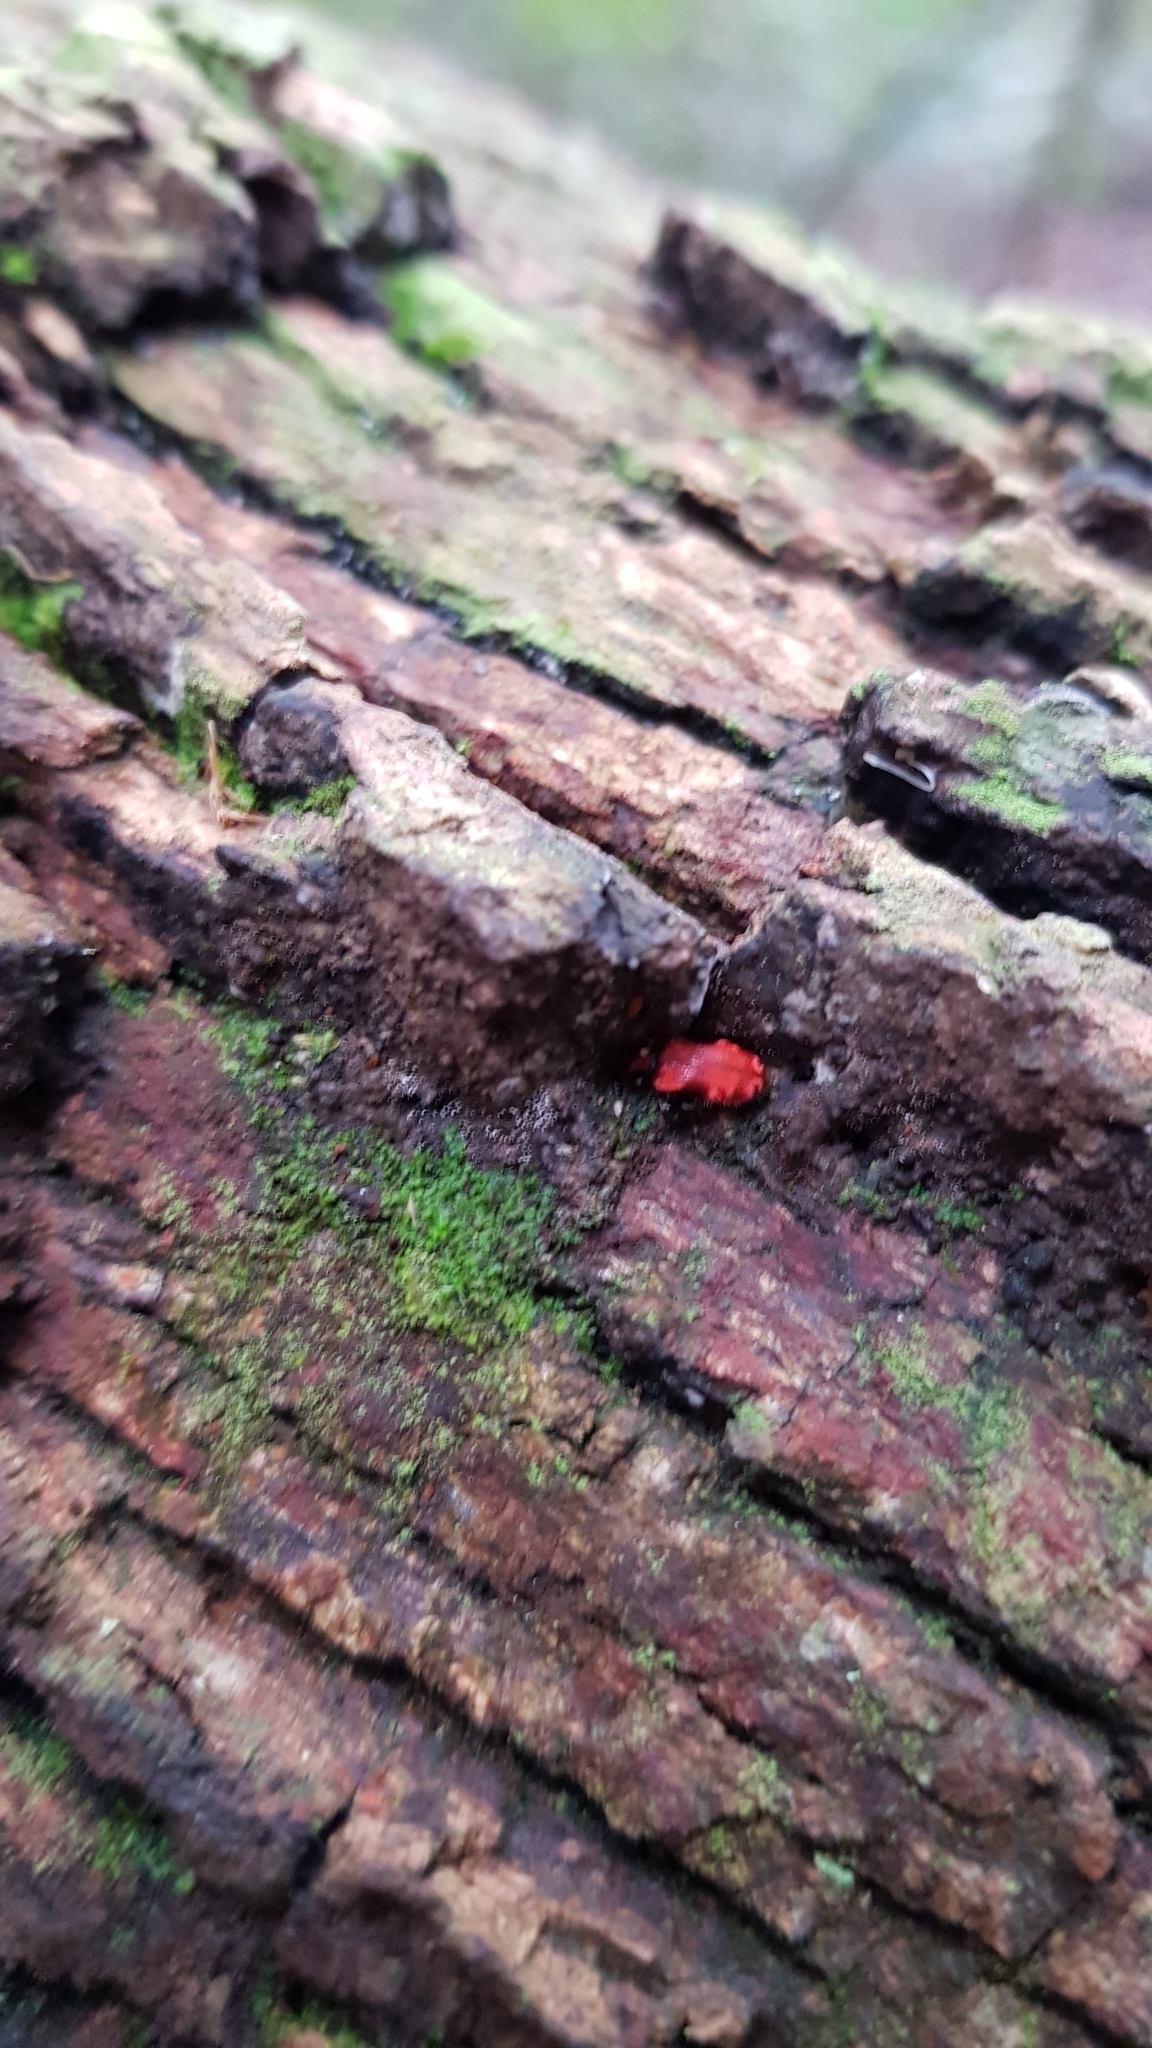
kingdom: Animalia
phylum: Arthropoda
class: Insecta
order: Coleoptera
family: Anthicidae
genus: Lemodes
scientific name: Lemodes
